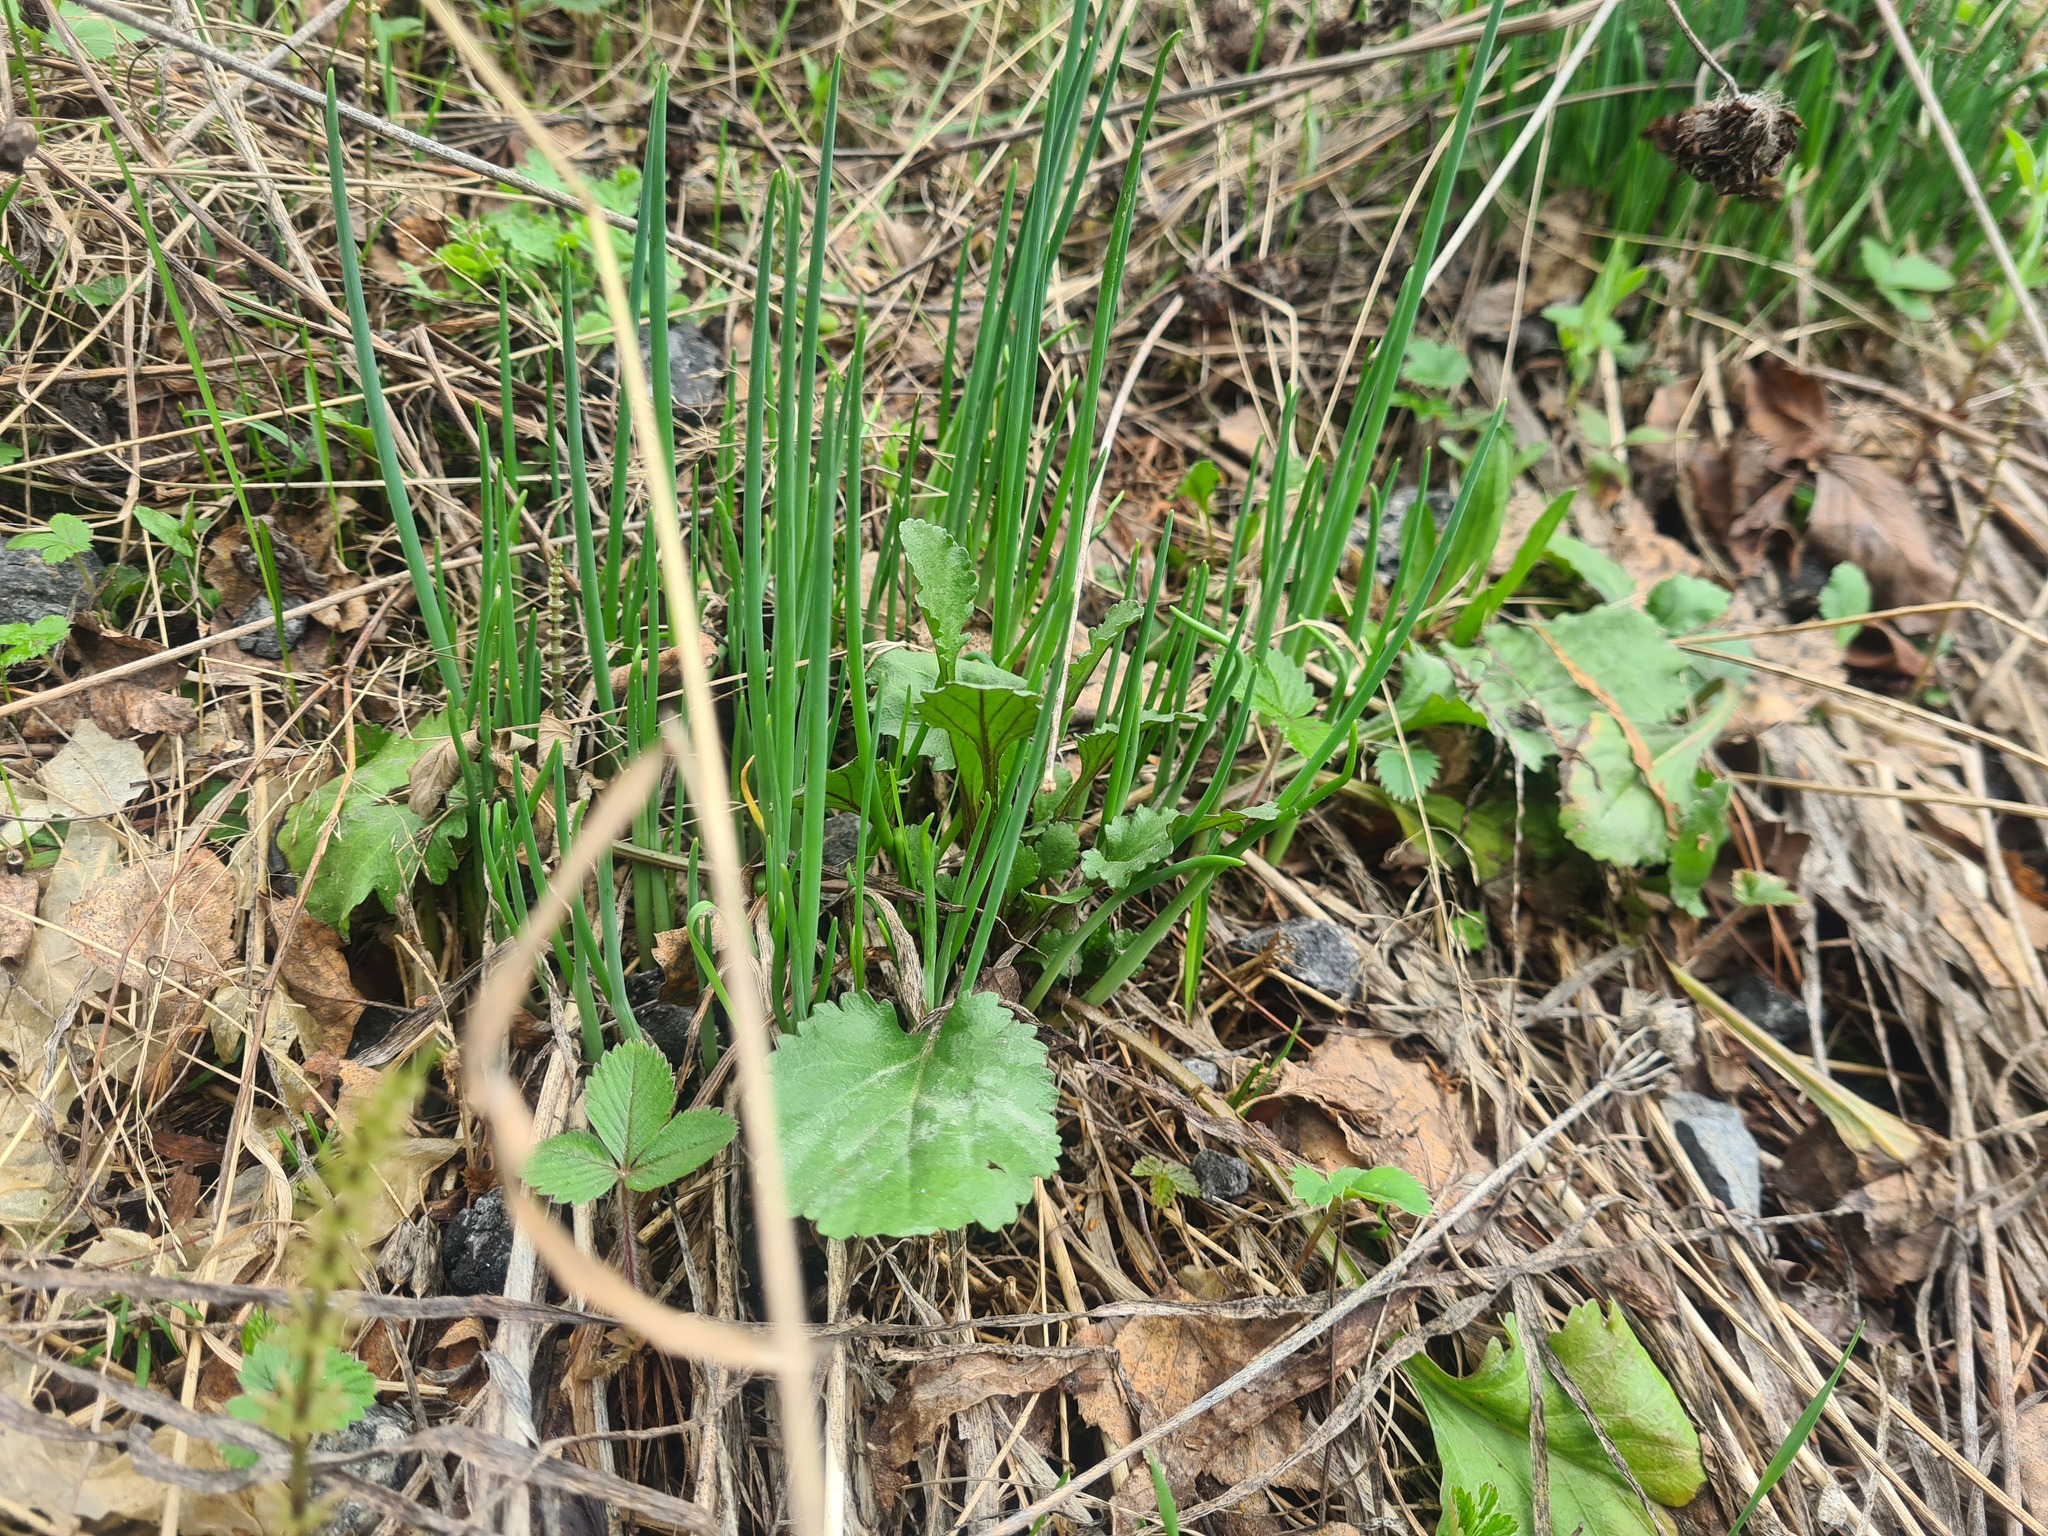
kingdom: Plantae
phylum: Tracheophyta
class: Liliopsida
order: Asparagales
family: Amaryllidaceae
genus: Allium
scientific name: Allium schoenoprasum
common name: Chives
